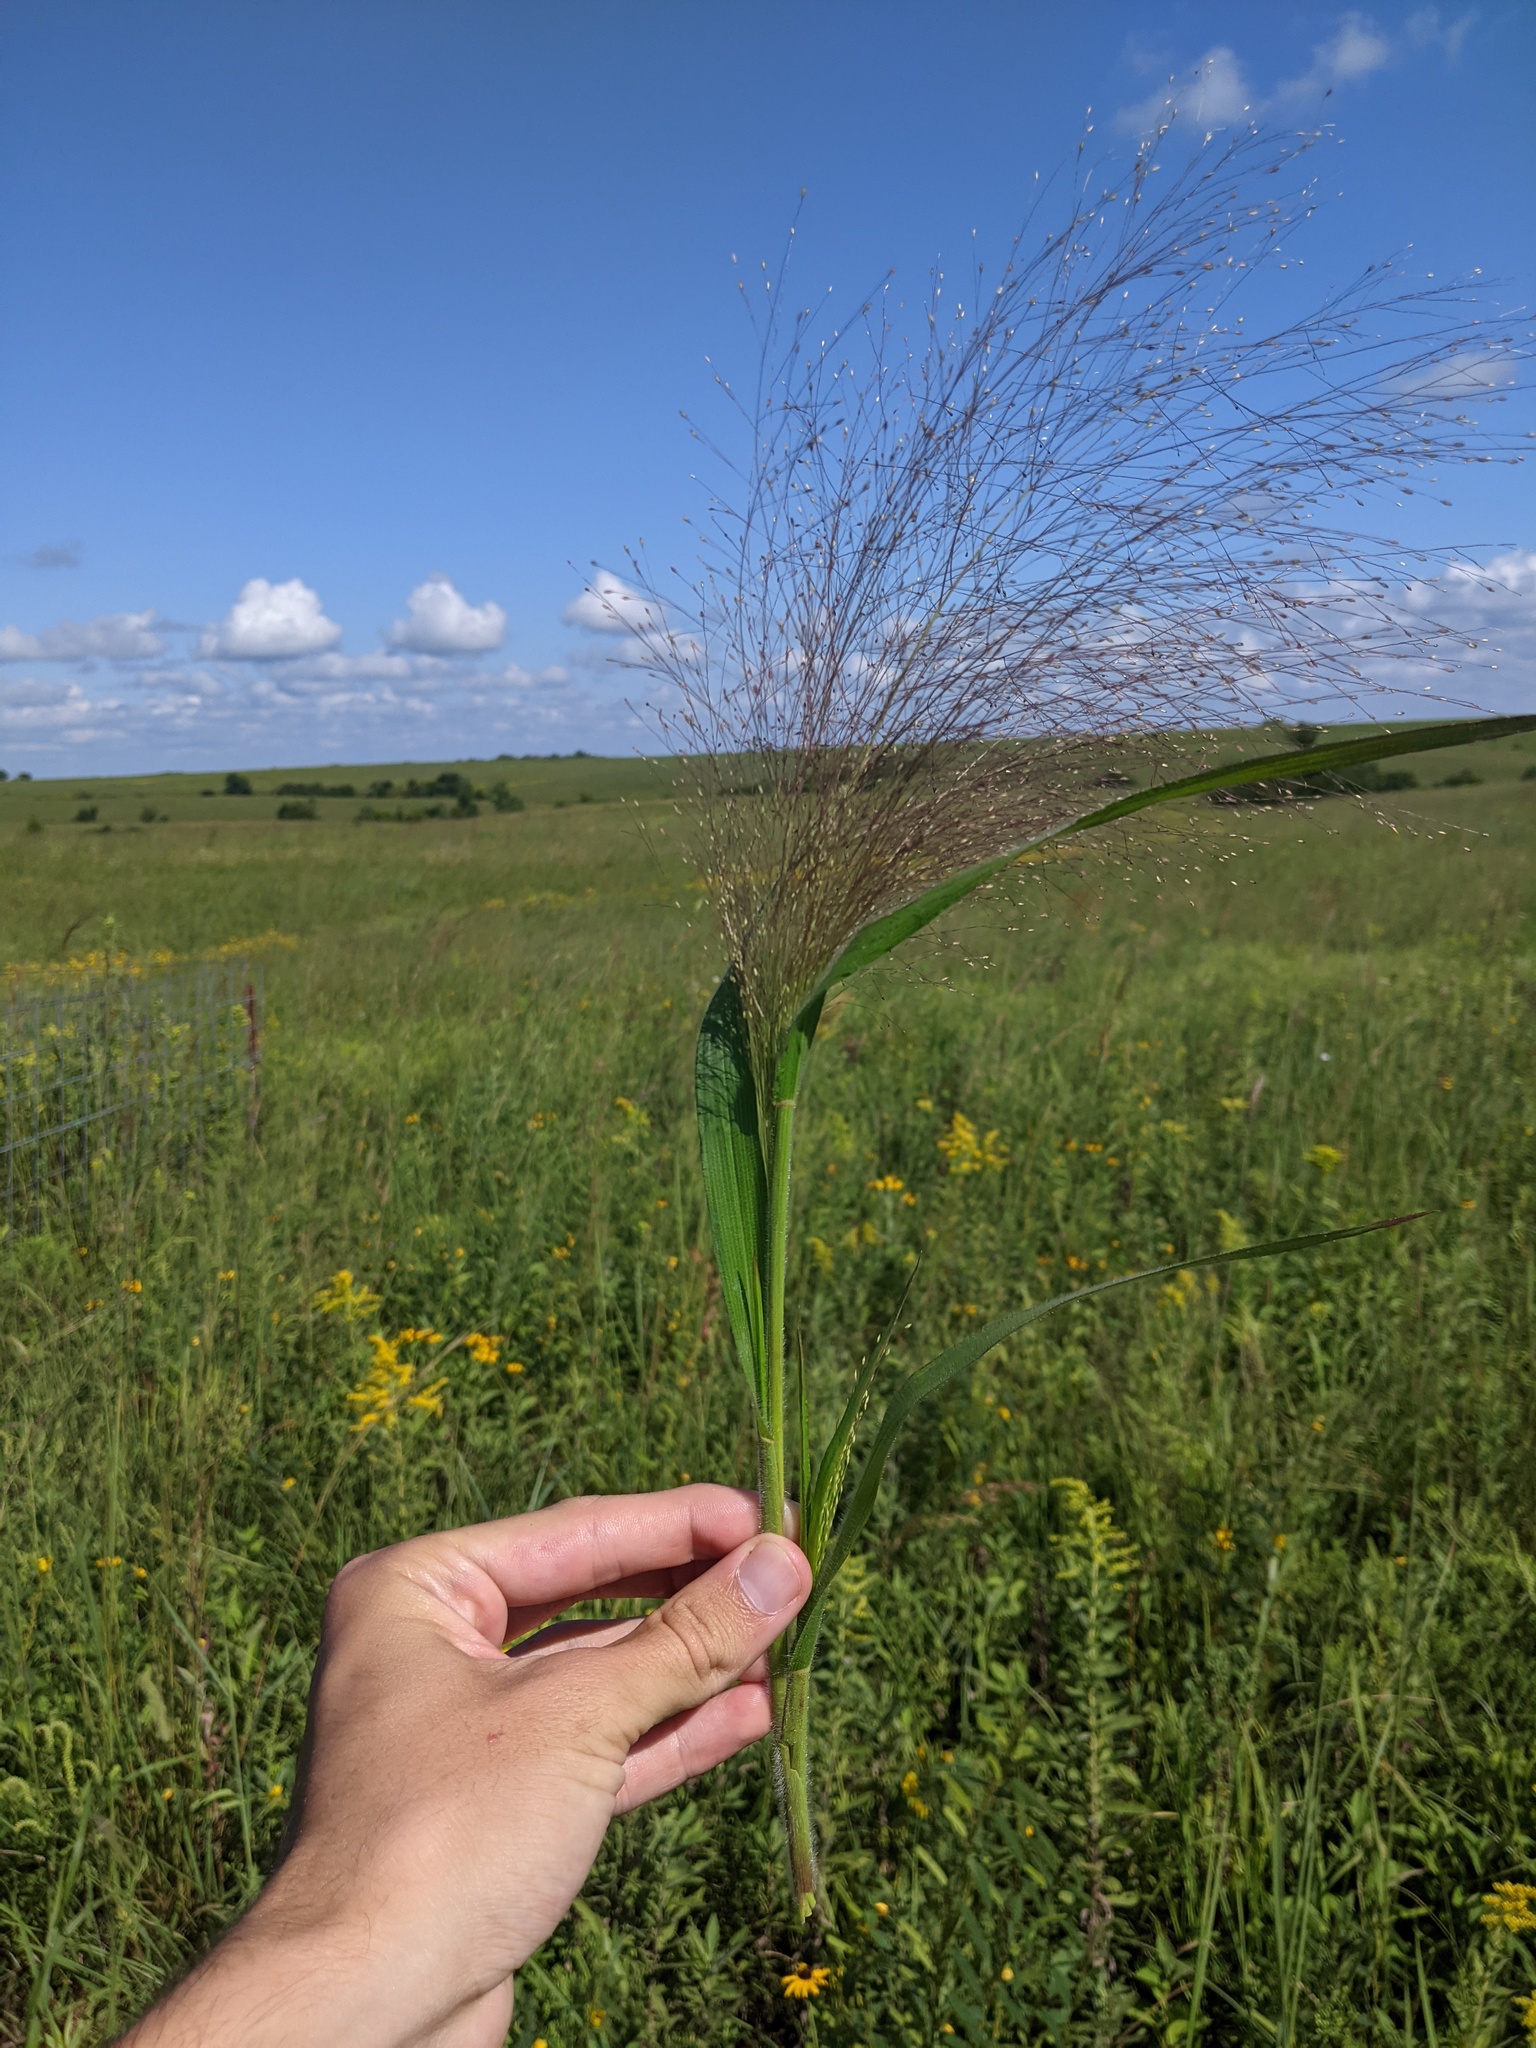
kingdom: Plantae
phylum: Tracheophyta
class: Liliopsida
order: Poales
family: Poaceae
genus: Panicum
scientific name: Panicum capillare
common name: Witch-grass
